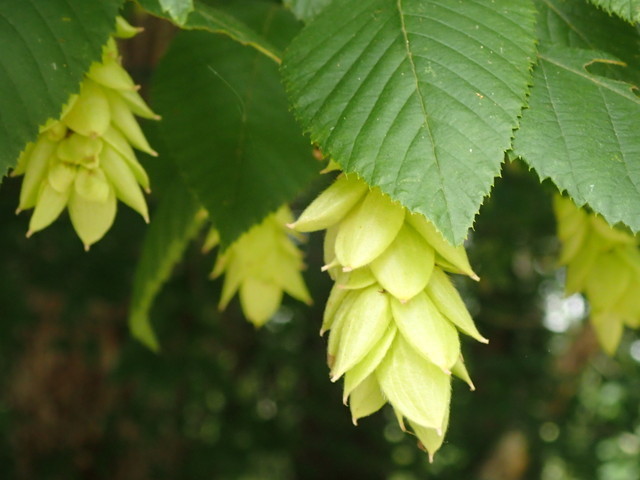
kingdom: Plantae
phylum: Tracheophyta
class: Magnoliopsida
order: Fagales
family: Betulaceae
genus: Ostrya
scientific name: Ostrya virginiana
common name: Ironwood
